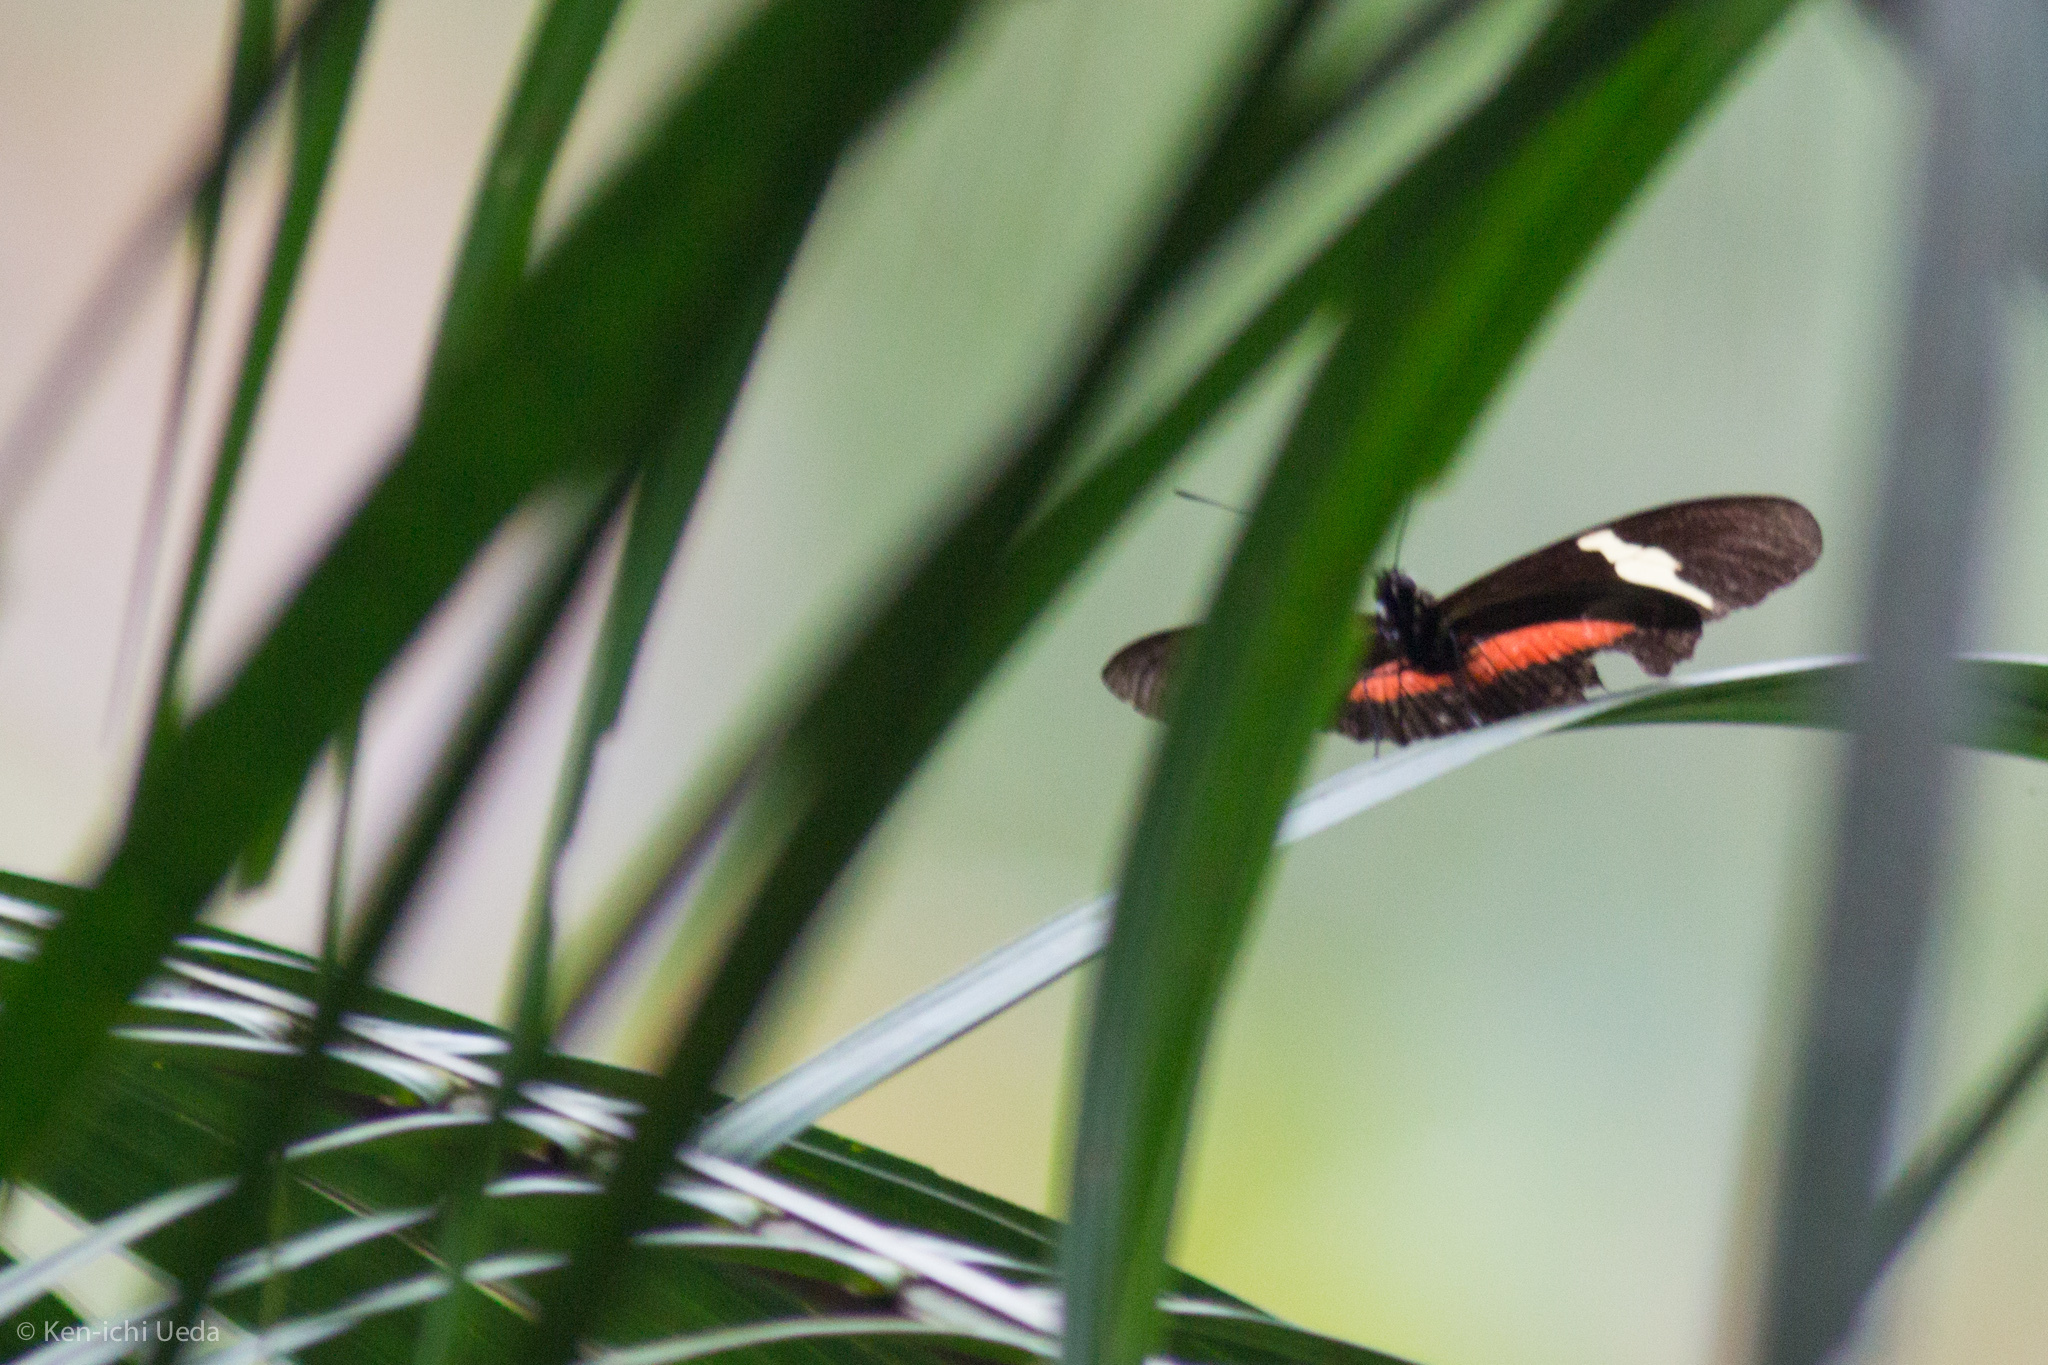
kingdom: Animalia
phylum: Arthropoda
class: Insecta
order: Lepidoptera
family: Nymphalidae
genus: Heliconius
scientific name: Heliconius clysonymus
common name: Clysonymus longwing
